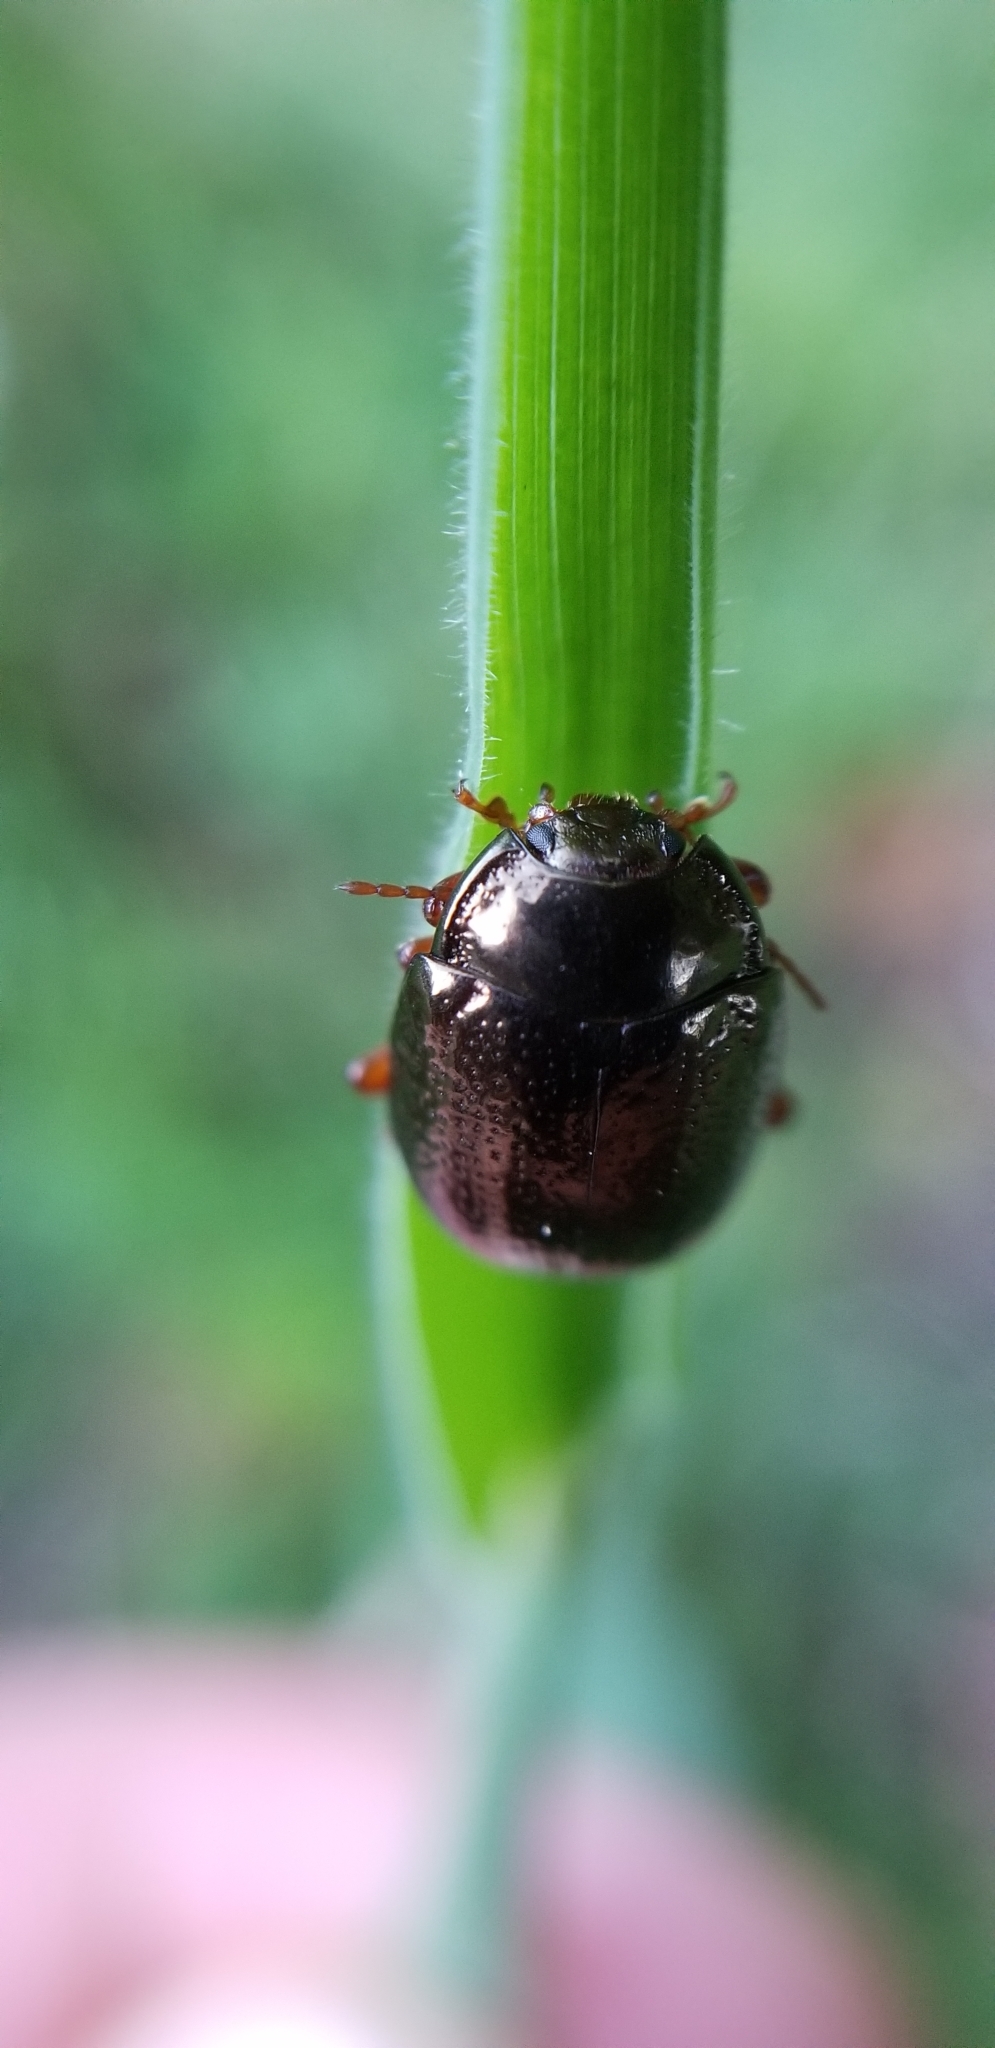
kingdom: Animalia
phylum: Arthropoda
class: Insecta
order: Coleoptera
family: Chrysomelidae
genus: Chrysolina
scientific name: Chrysolina bankii
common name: Leaf beetle
